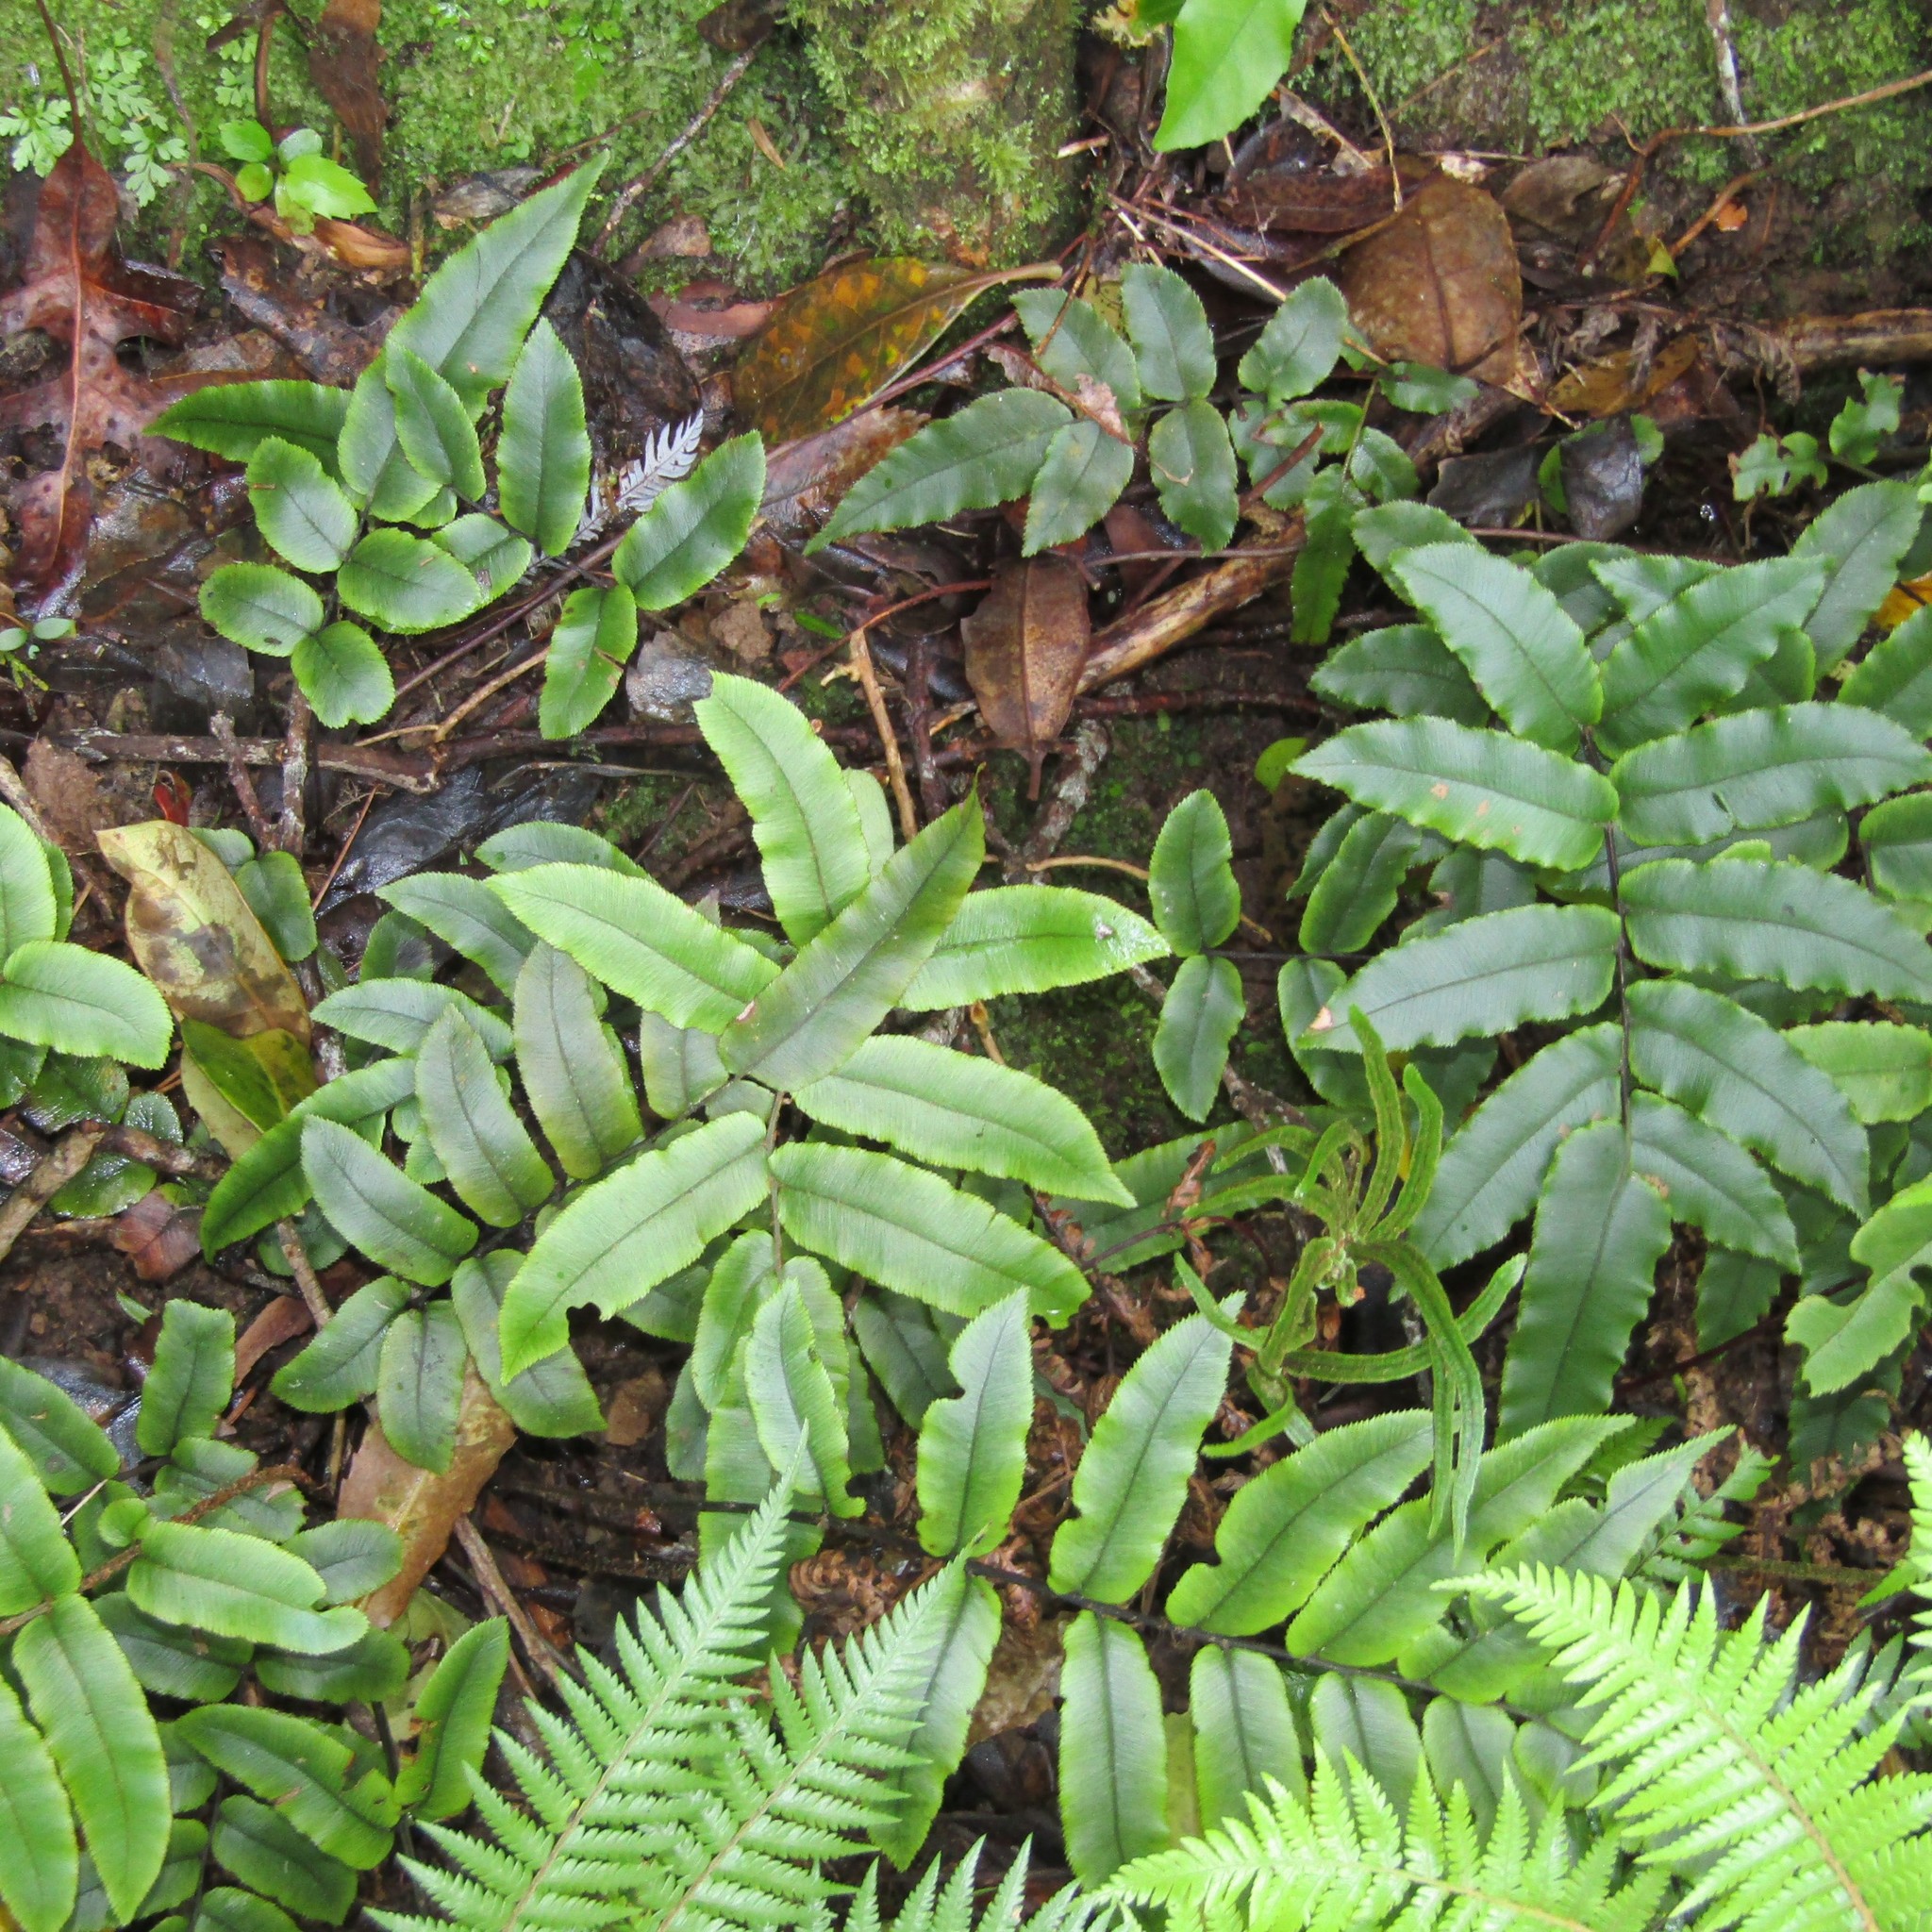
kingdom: Plantae
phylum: Tracheophyta
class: Polypodiopsida
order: Polypodiales
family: Blechnaceae
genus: Parablechnum
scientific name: Parablechnum procerum
